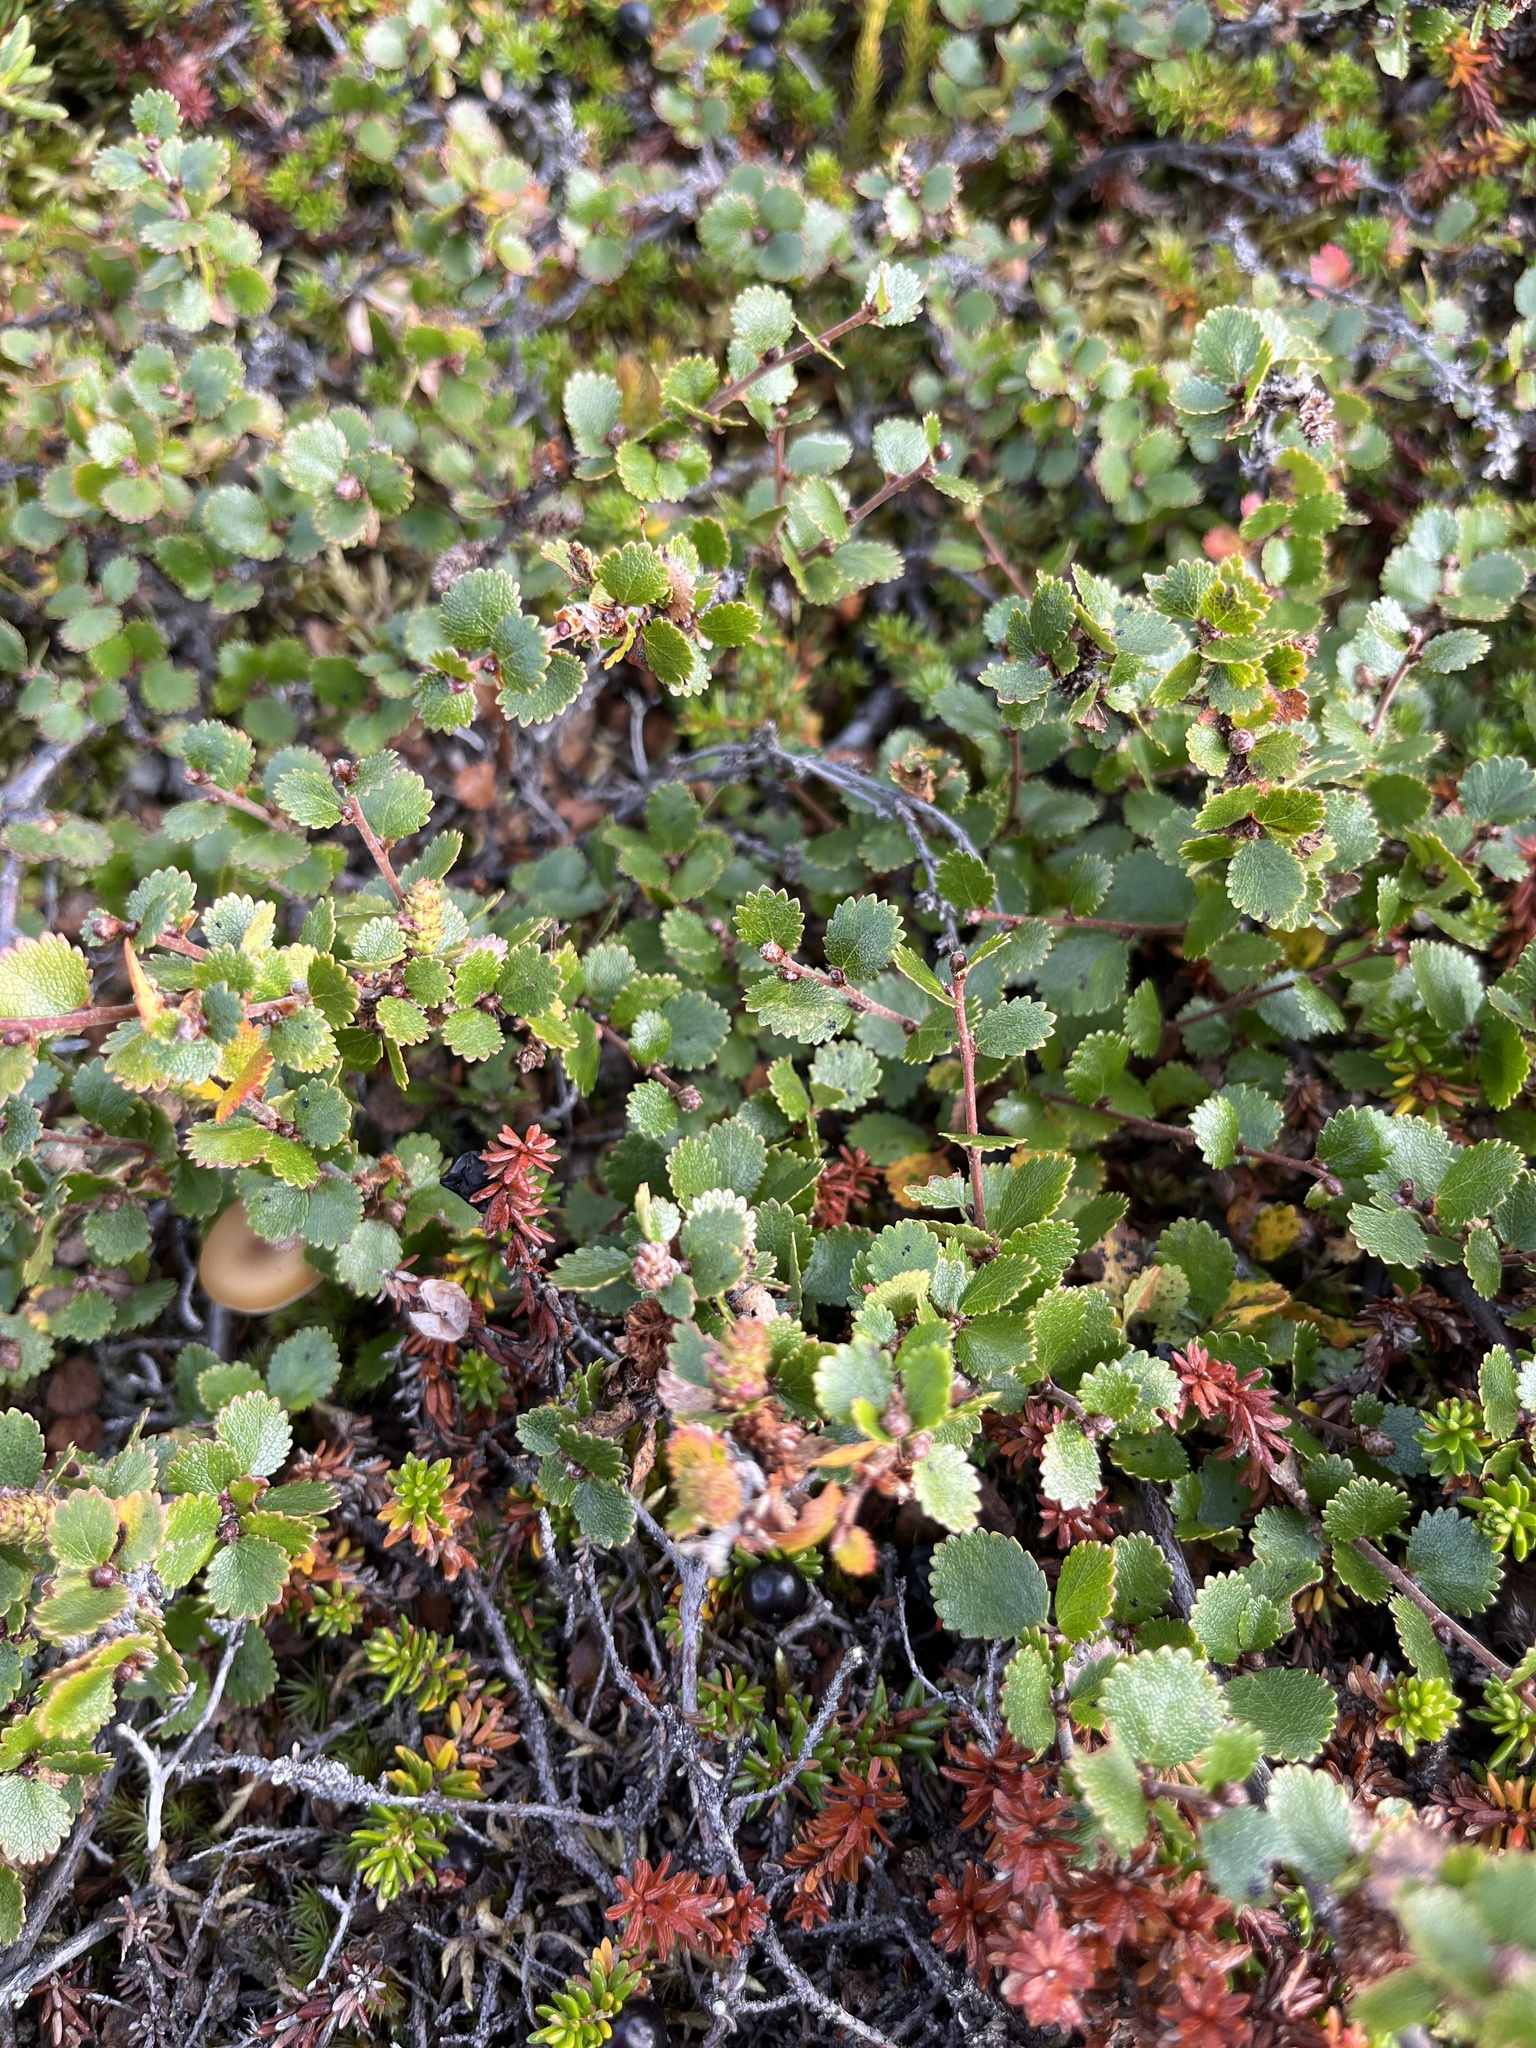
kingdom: Plantae
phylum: Tracheophyta
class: Magnoliopsida
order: Fagales
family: Betulaceae
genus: Betula
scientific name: Betula nana
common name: Arctic dwarf birch
